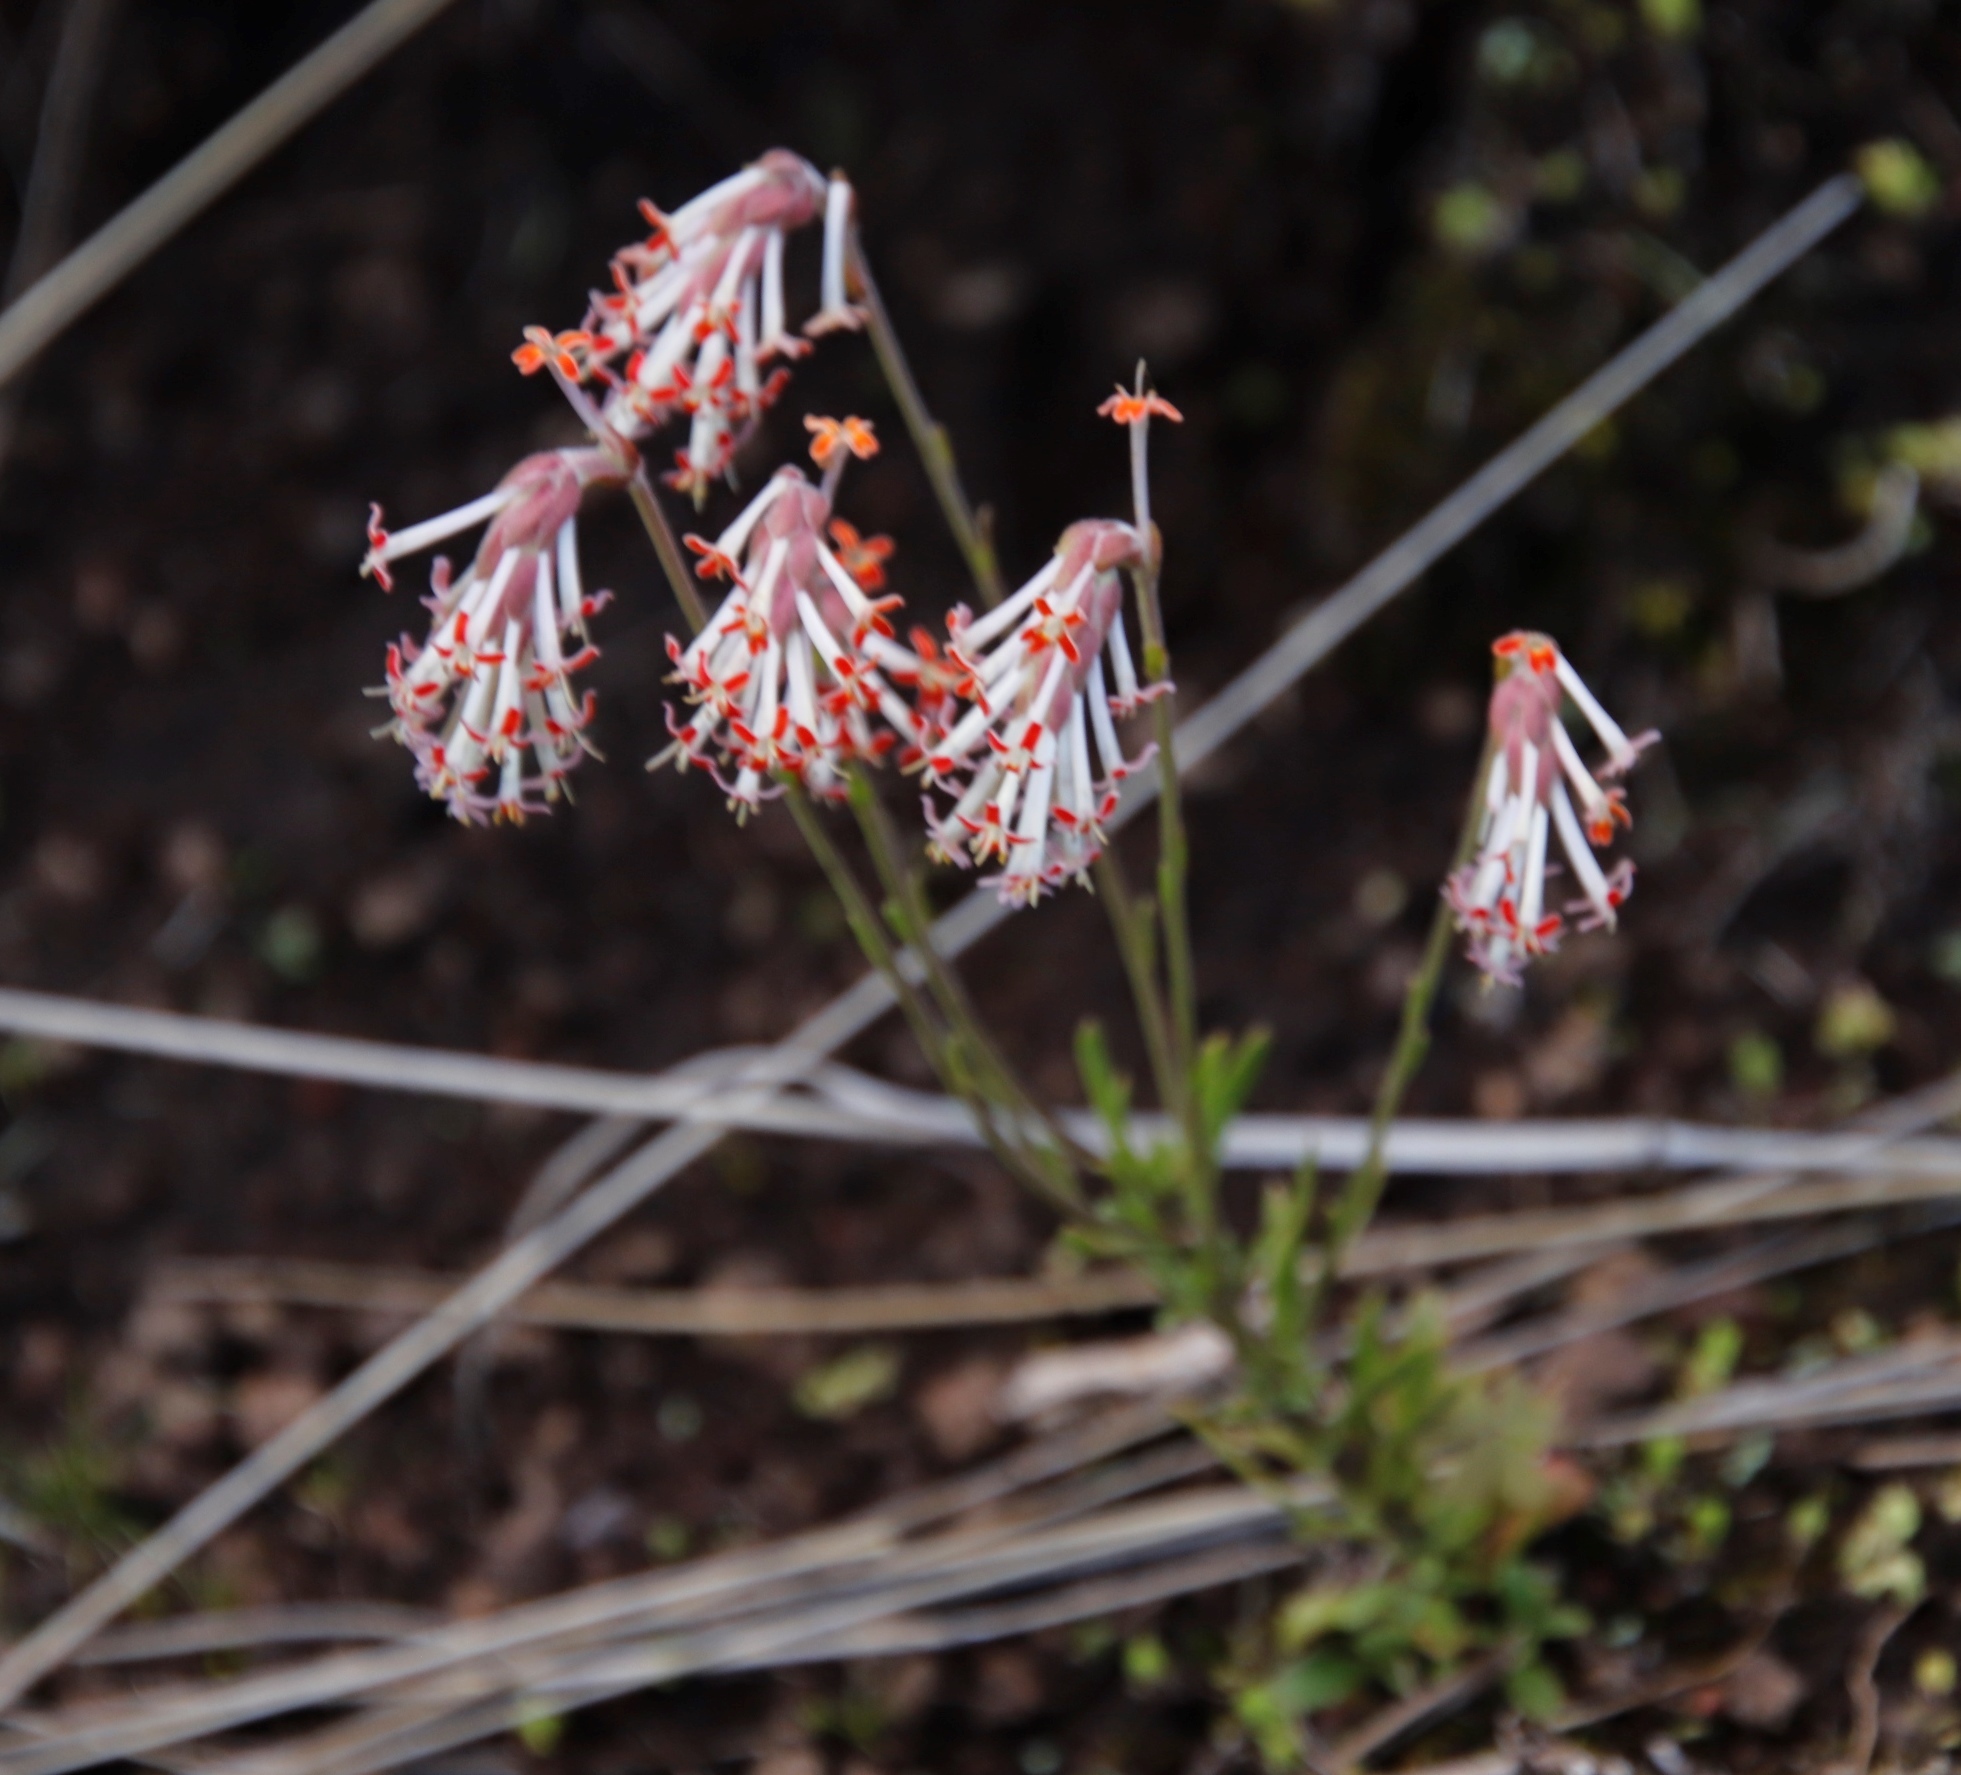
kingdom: Plantae
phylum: Tracheophyta
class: Magnoliopsida
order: Lamiales
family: Scrophulariaceae
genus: Glumicalyx
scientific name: Glumicalyx goseloides
